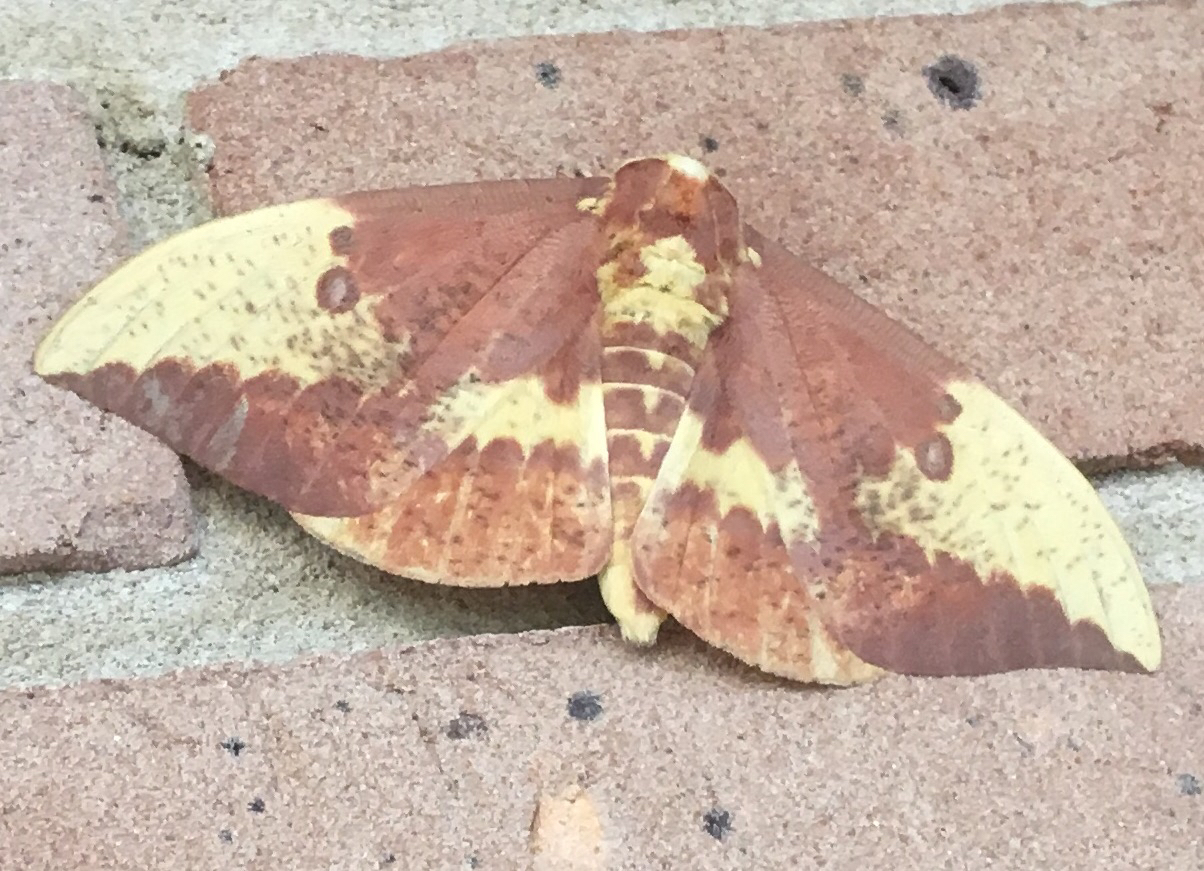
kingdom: Animalia
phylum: Arthropoda
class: Insecta
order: Lepidoptera
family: Saturniidae
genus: Eacles
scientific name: Eacles imperialis
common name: Imperial moth
